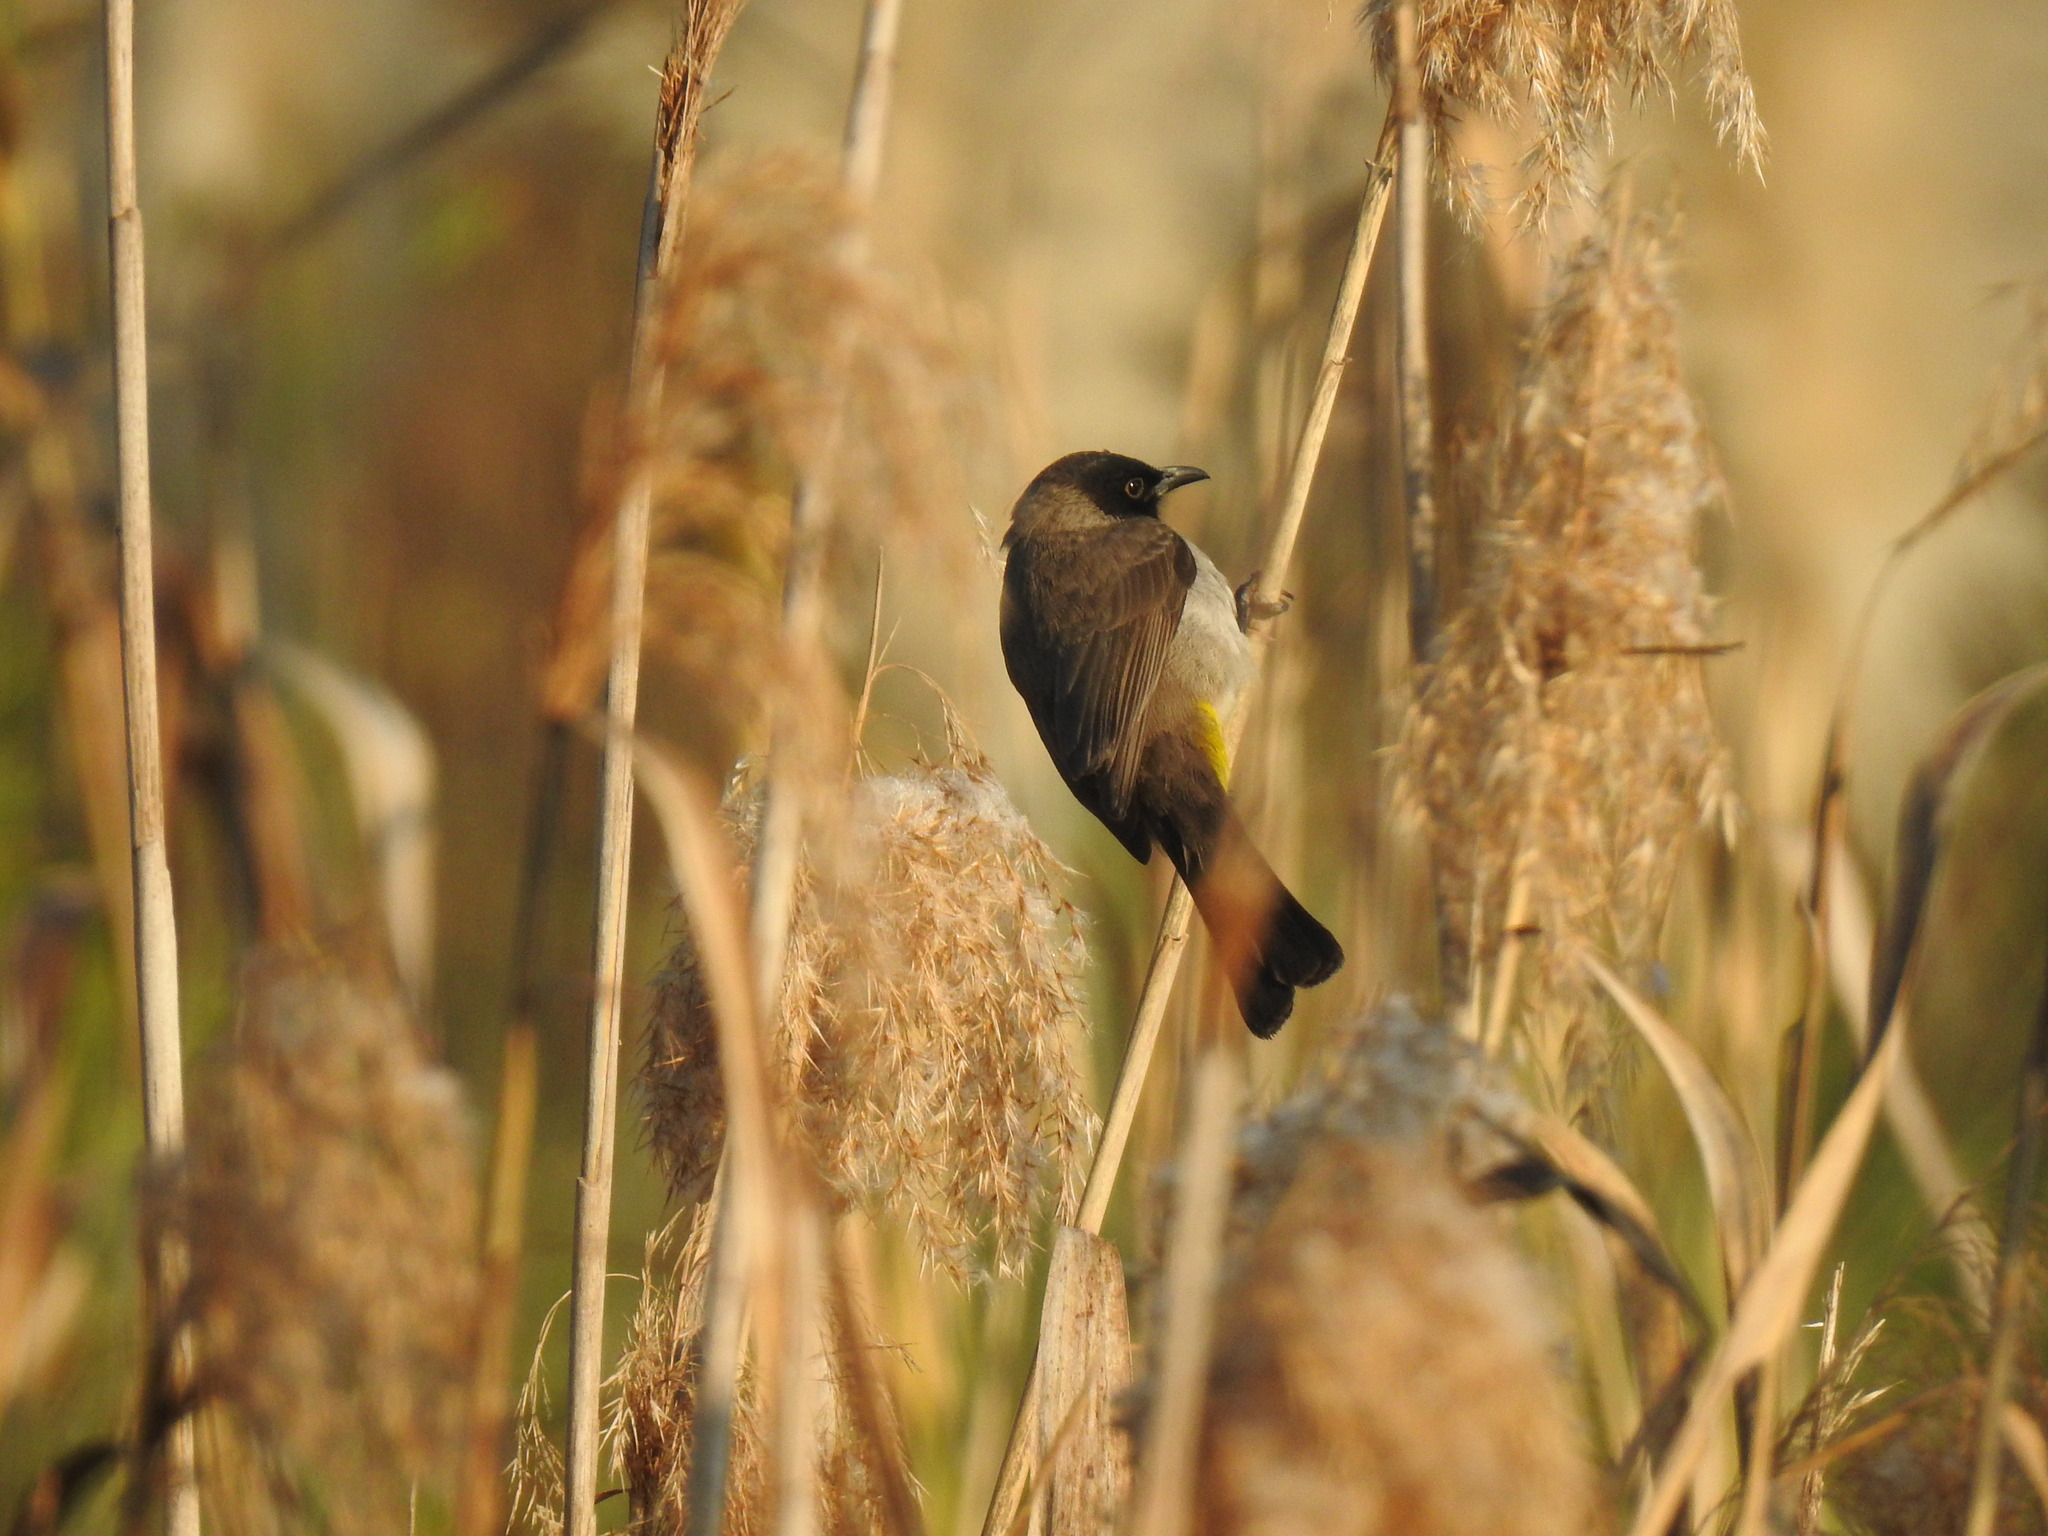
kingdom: Animalia
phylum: Chordata
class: Aves
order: Passeriformes
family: Pycnonotidae
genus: Pycnonotus
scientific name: Pycnonotus barbatus
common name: Common bulbul
